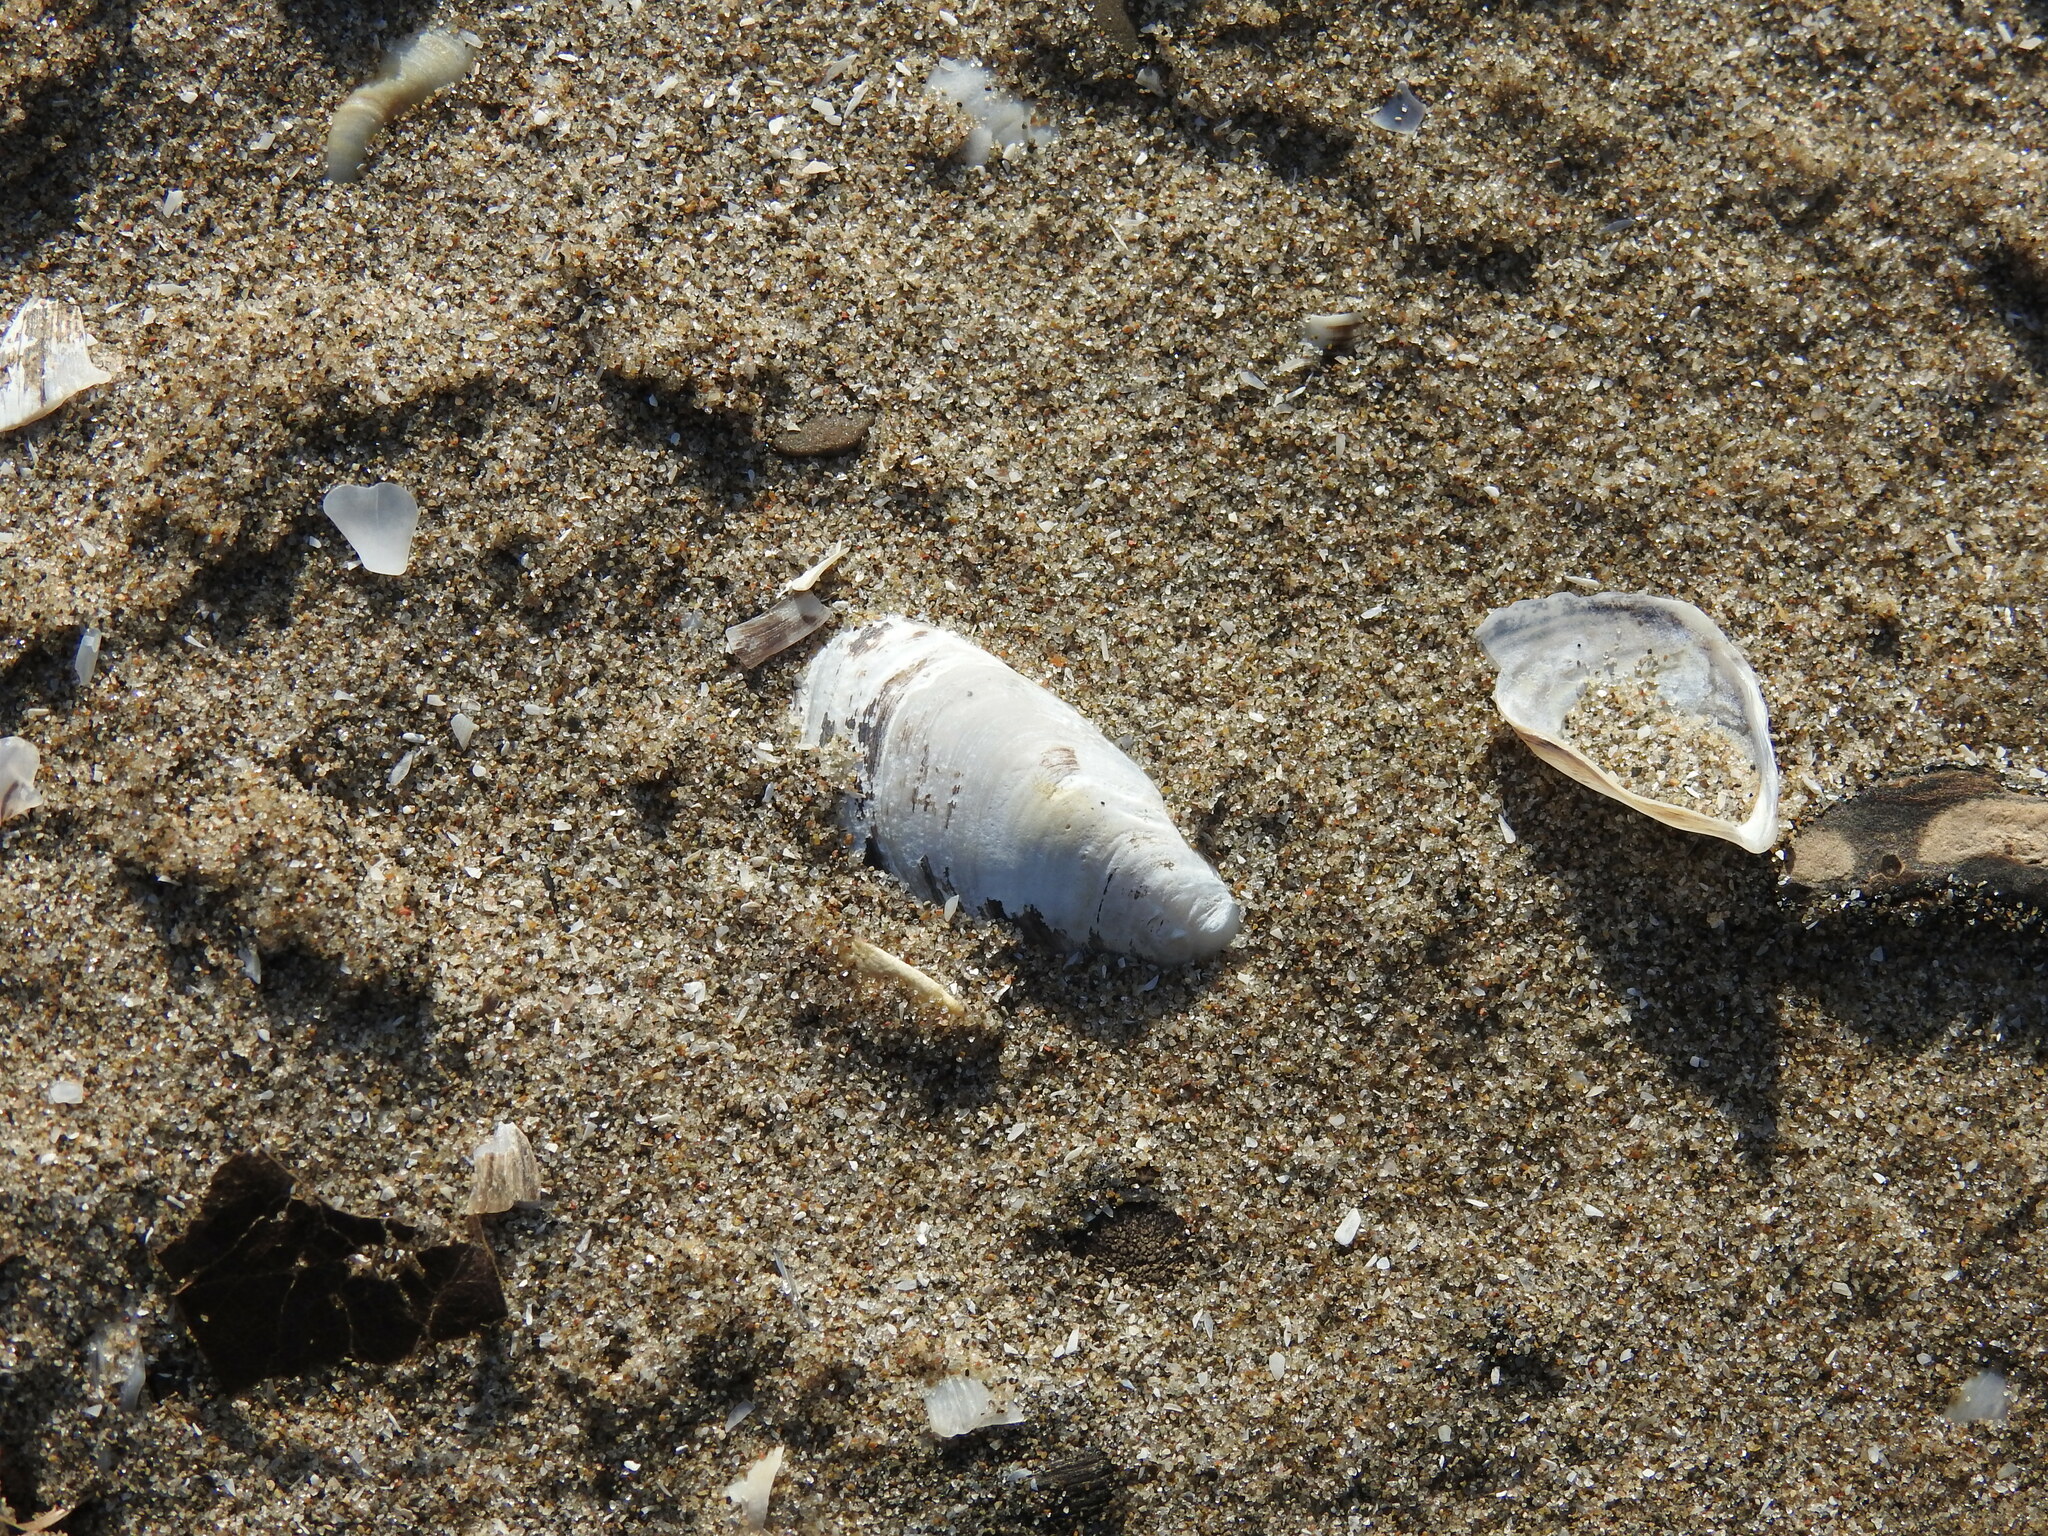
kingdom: Animalia
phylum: Mollusca
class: Bivalvia
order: Myida
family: Dreissenidae
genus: Dreissena
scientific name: Dreissena bugensis
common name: Quagga mussel
